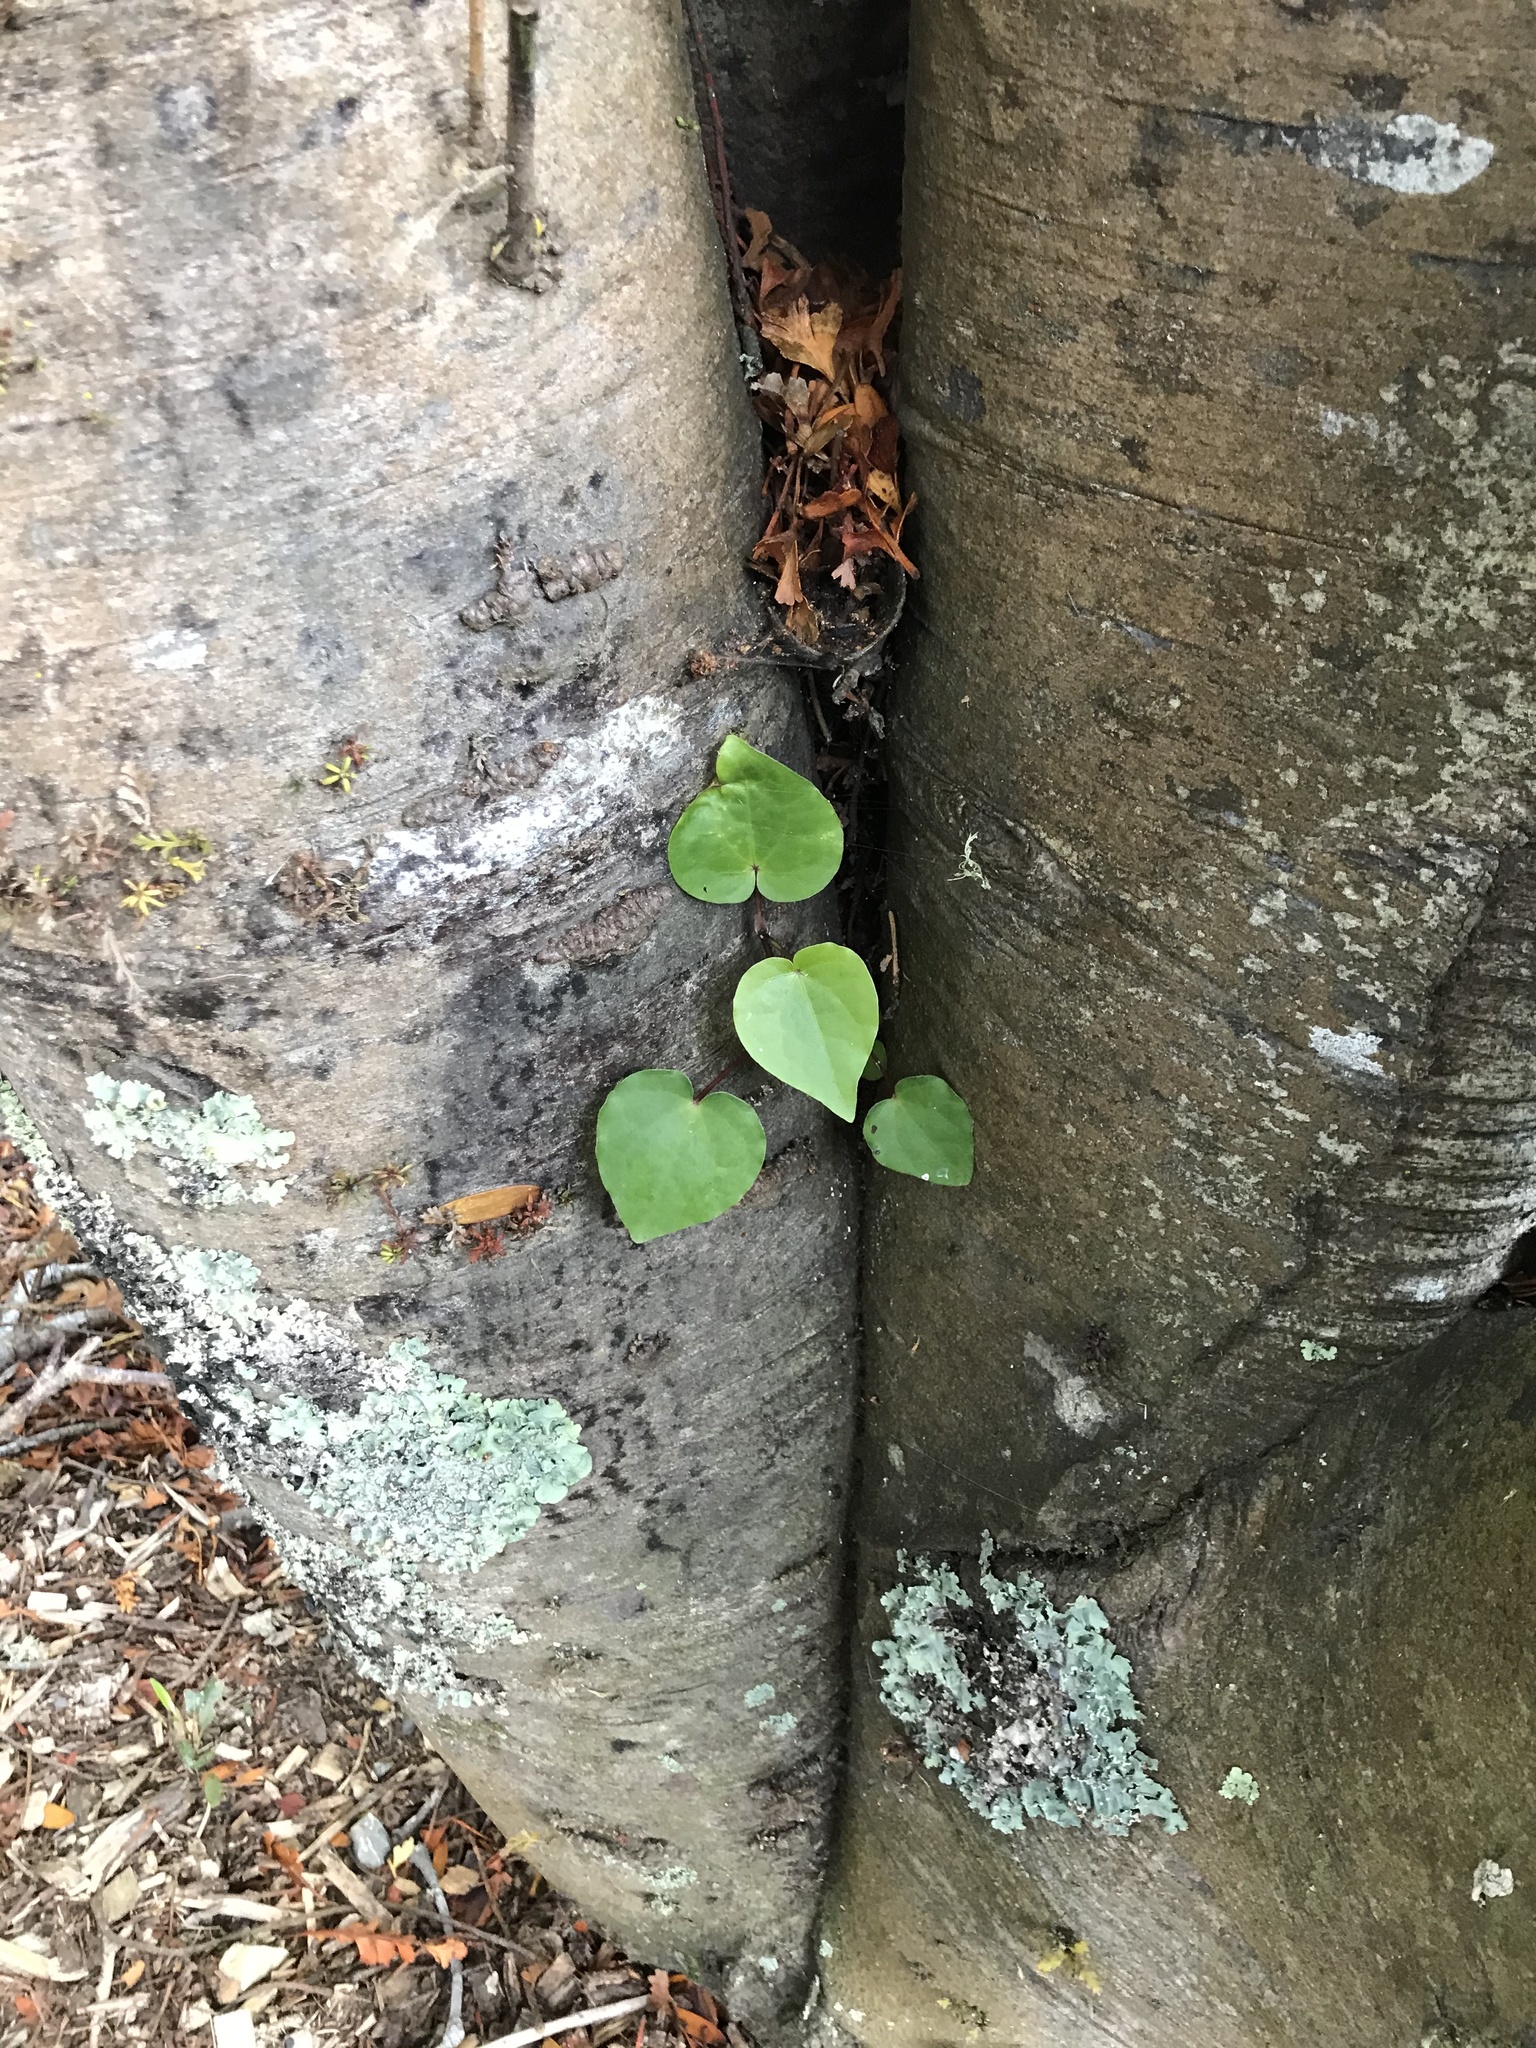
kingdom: Plantae
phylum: Tracheophyta
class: Magnoliopsida
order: Piperales
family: Piperaceae
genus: Macropiper
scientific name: Macropiper excelsum
